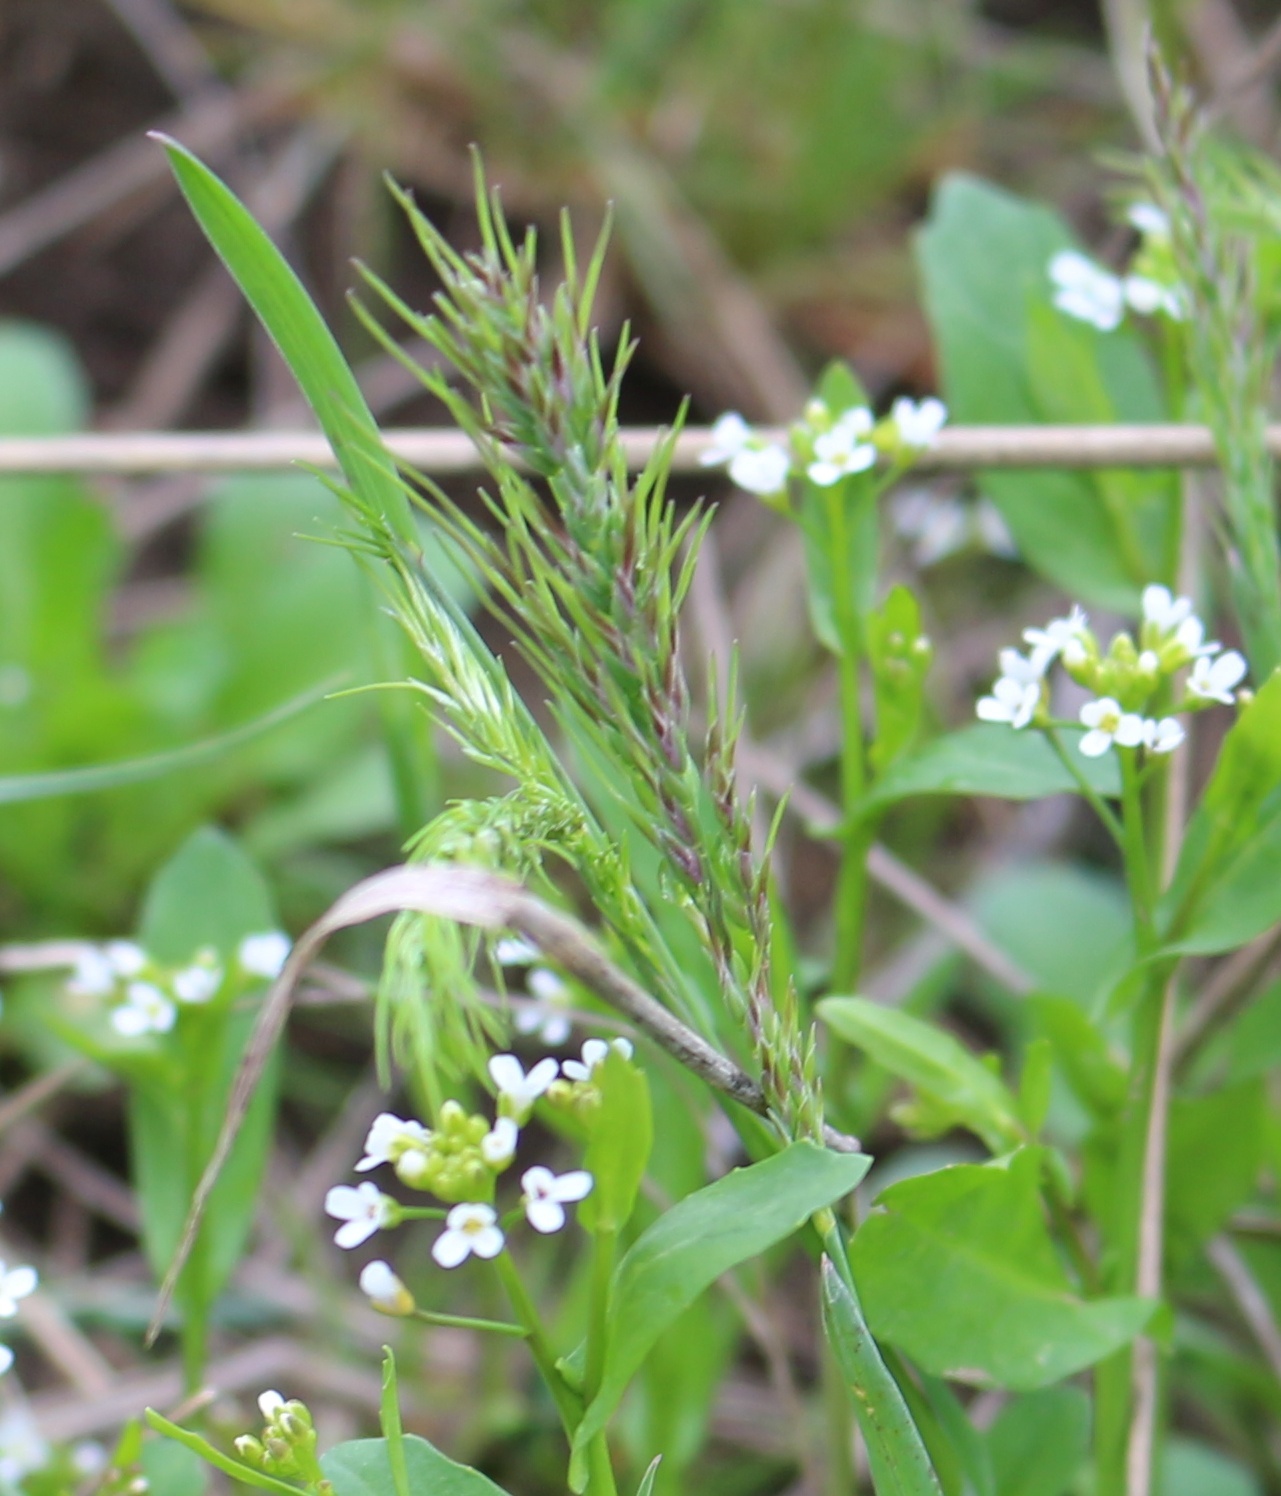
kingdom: Plantae
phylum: Tracheophyta
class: Liliopsida
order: Poales
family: Poaceae
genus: Poa
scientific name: Poa bulbosa
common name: Bulbous bluegrass
